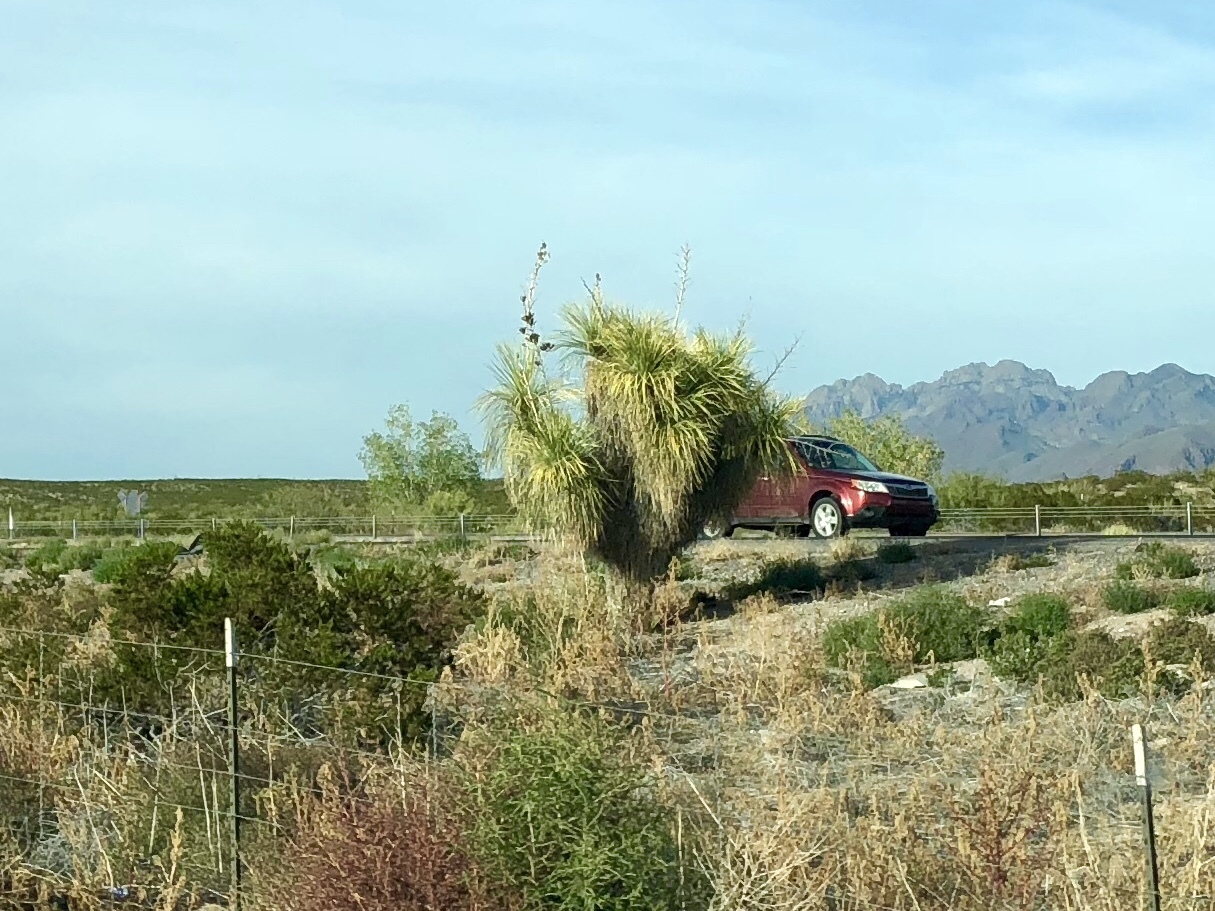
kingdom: Plantae
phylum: Tracheophyta
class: Liliopsida
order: Asparagales
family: Asparagaceae
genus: Yucca
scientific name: Yucca elata
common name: Palmella
